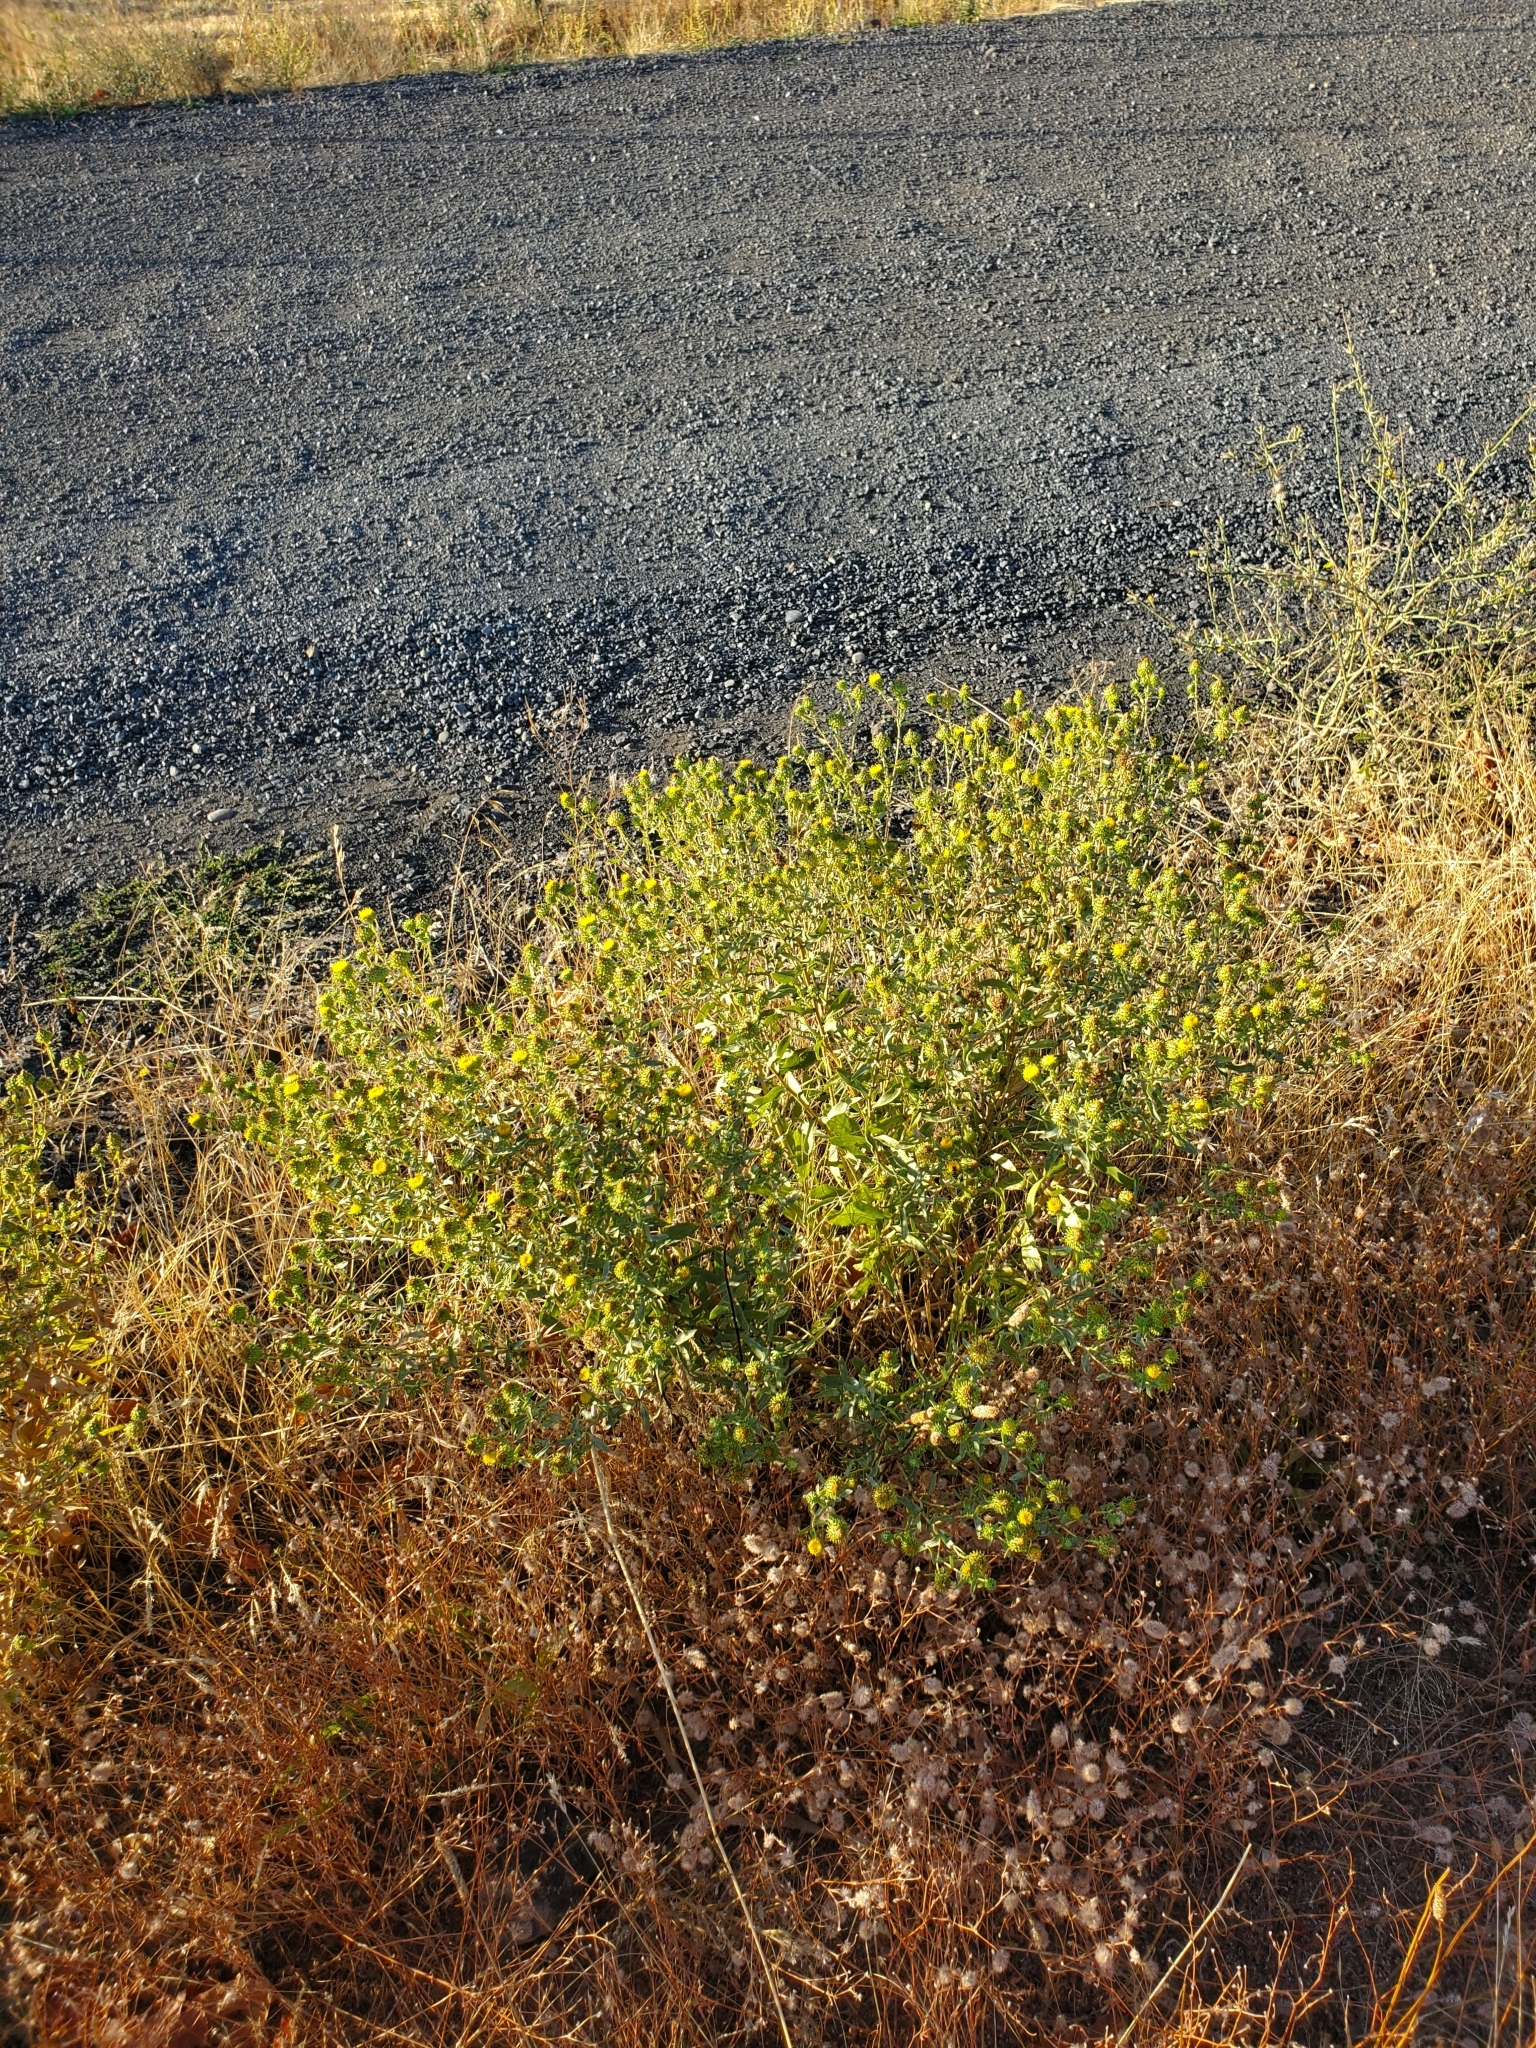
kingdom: Plantae
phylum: Tracheophyta
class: Magnoliopsida
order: Asterales
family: Asteraceae
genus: Grindelia
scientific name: Grindelia hirsutula
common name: Hairy gumweed
